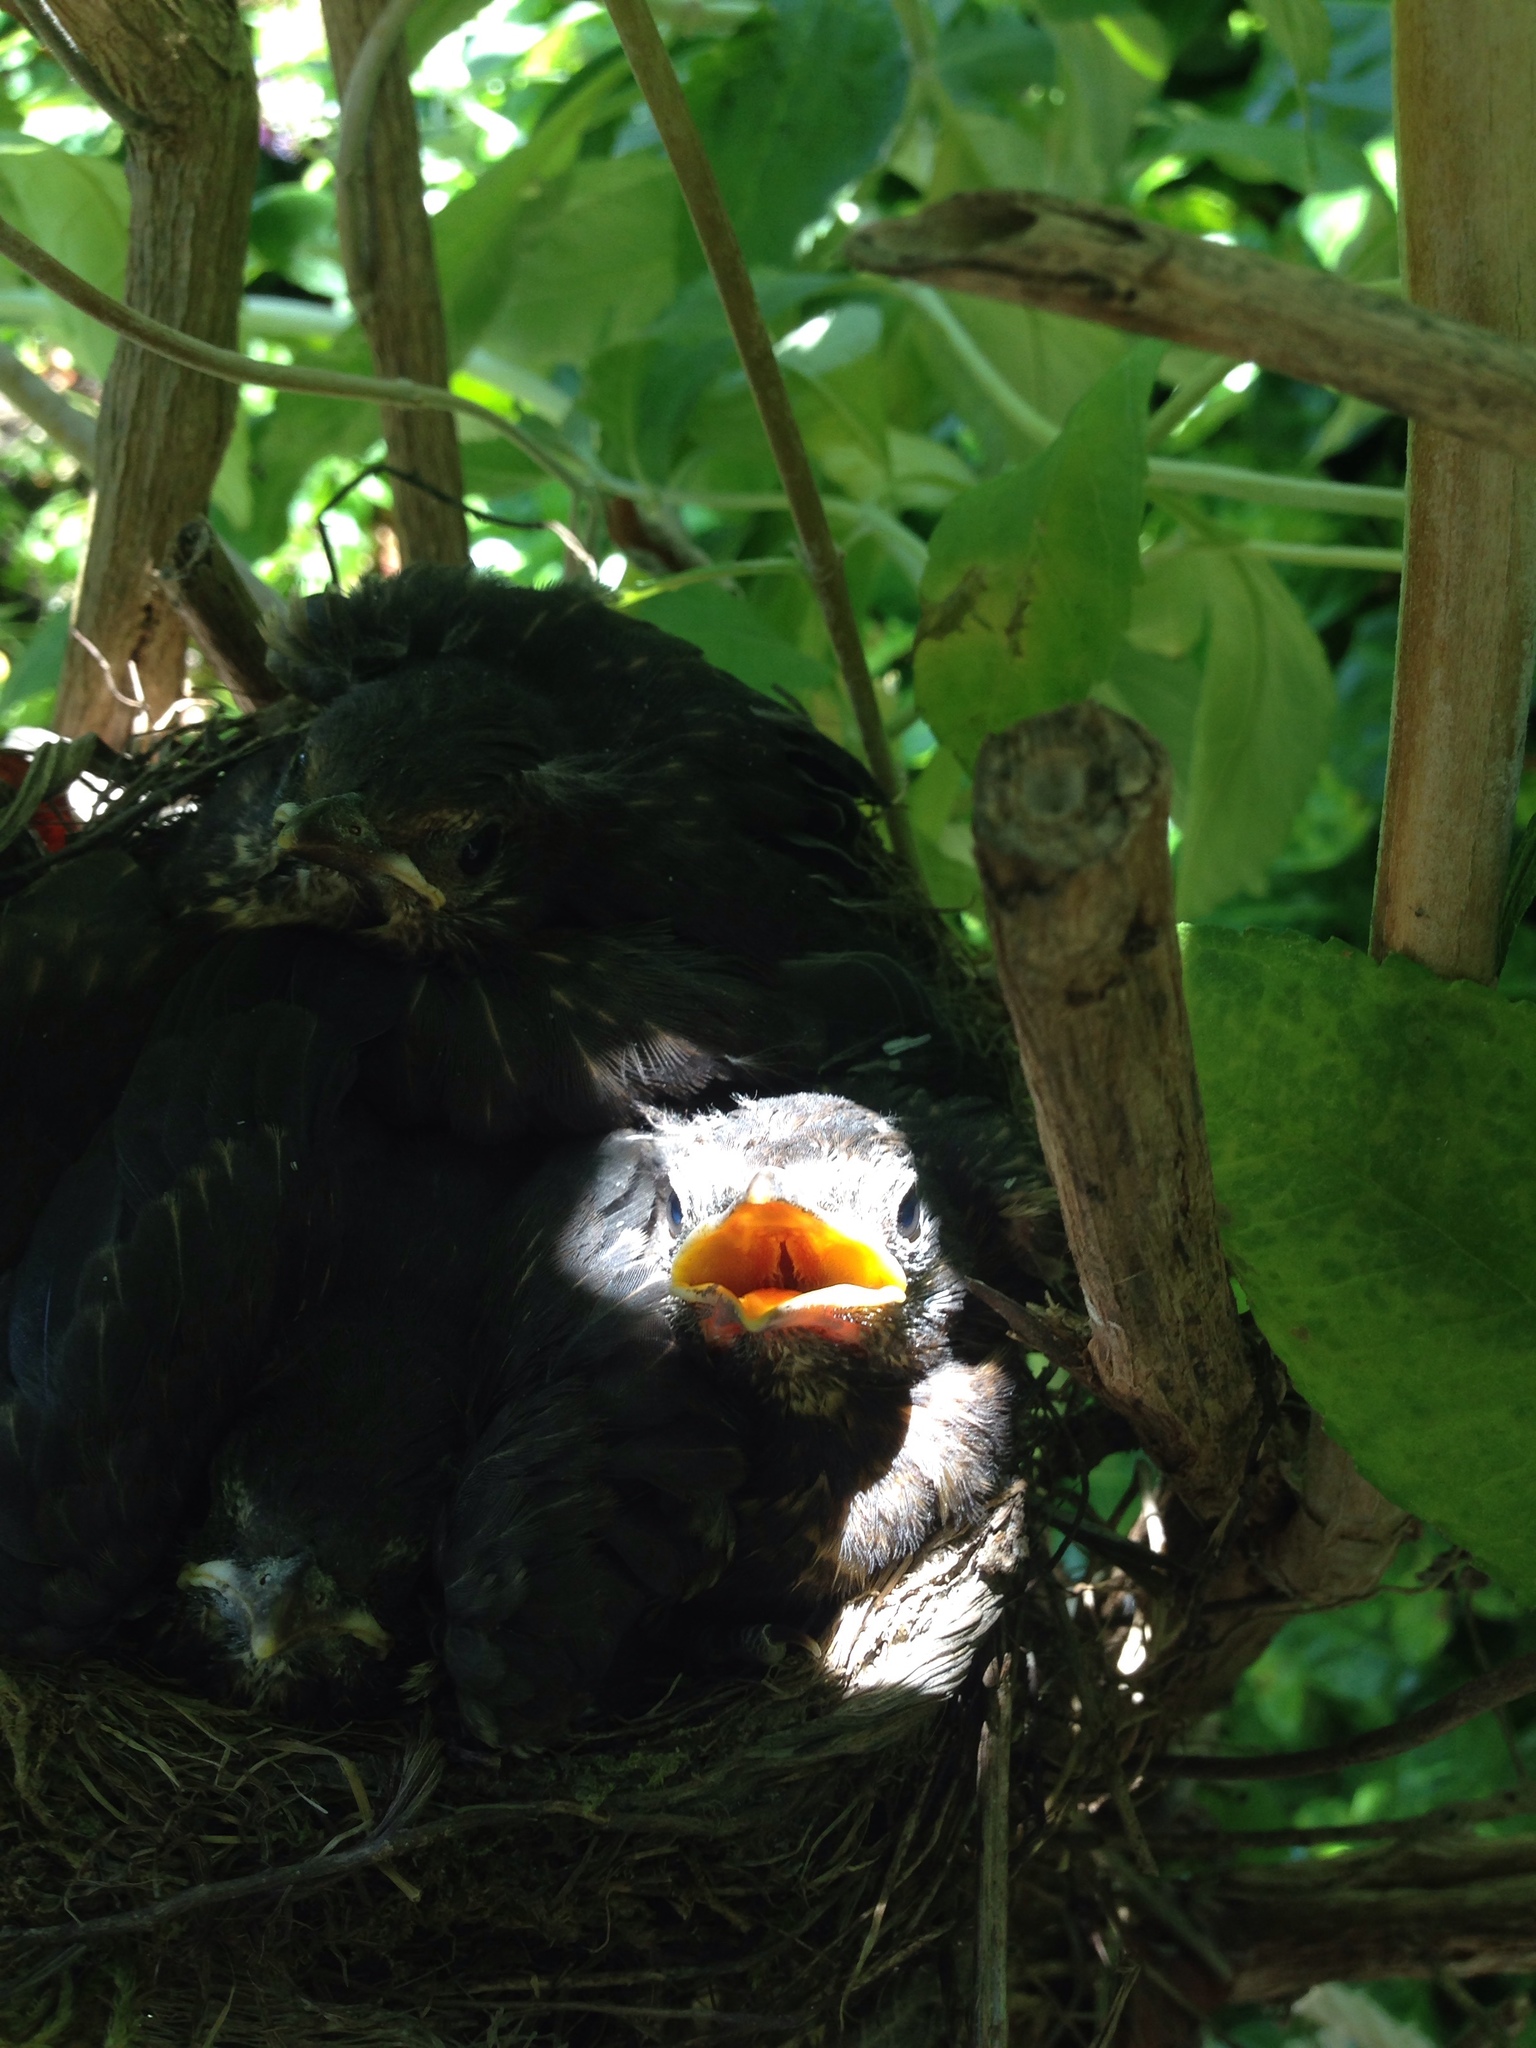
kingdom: Animalia
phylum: Chordata
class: Aves
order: Passeriformes
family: Turdidae
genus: Turdus
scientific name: Turdus merula
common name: Common blackbird
